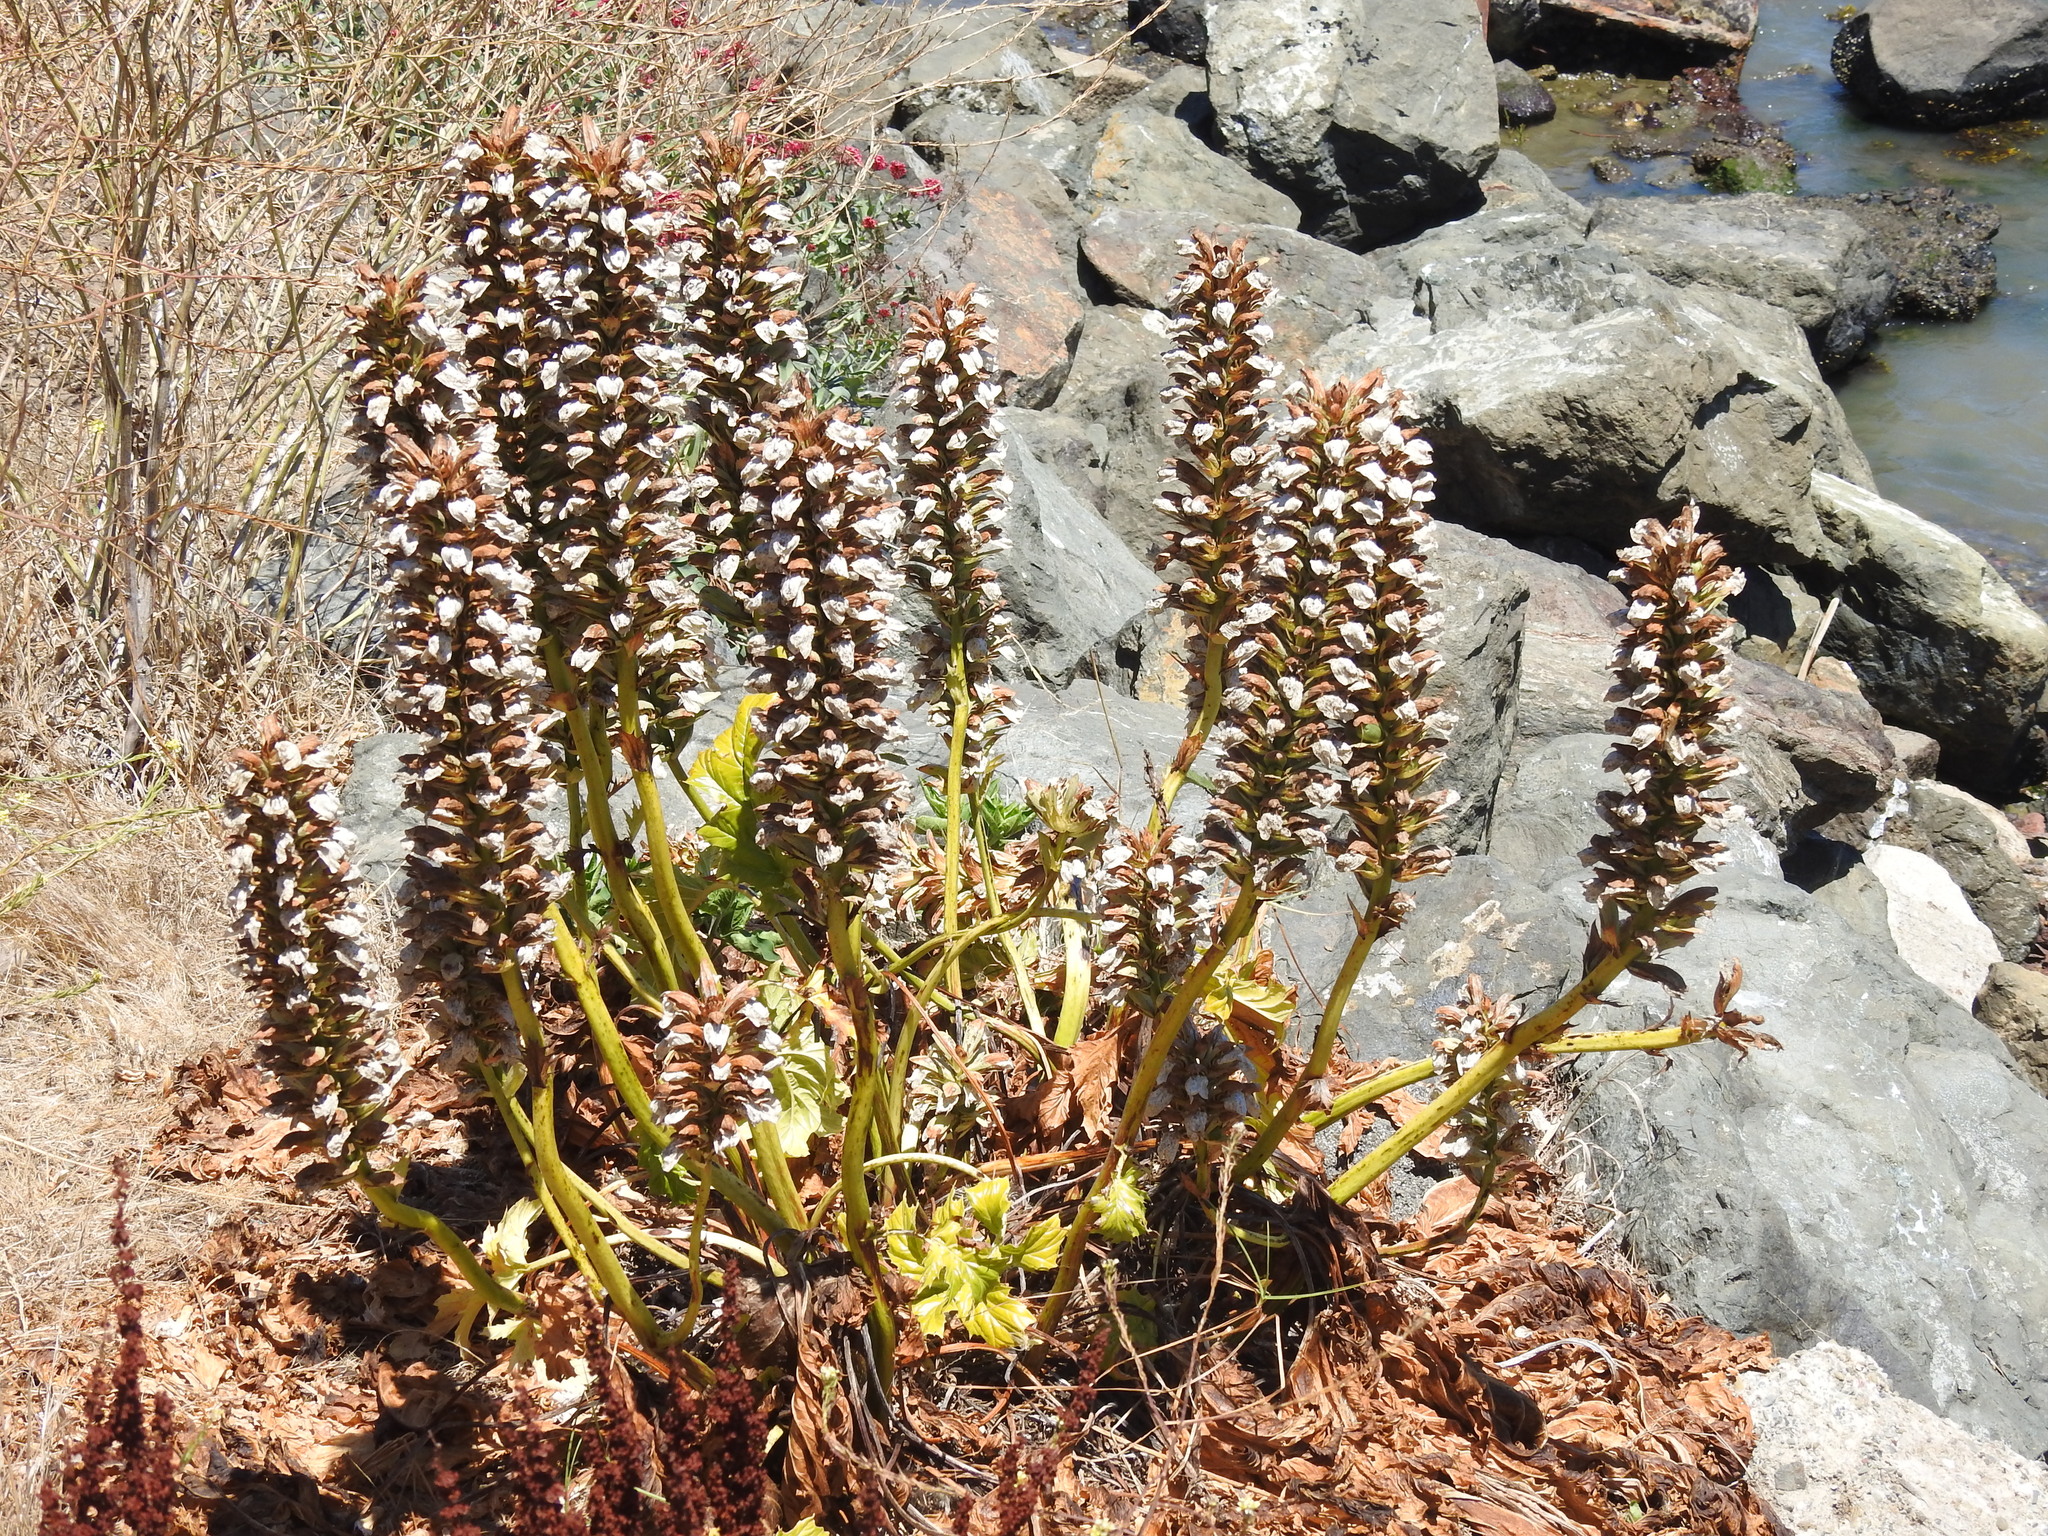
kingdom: Plantae
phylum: Tracheophyta
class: Magnoliopsida
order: Lamiales
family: Acanthaceae
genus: Acanthus
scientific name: Acanthus mollis
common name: Bear's-breech
